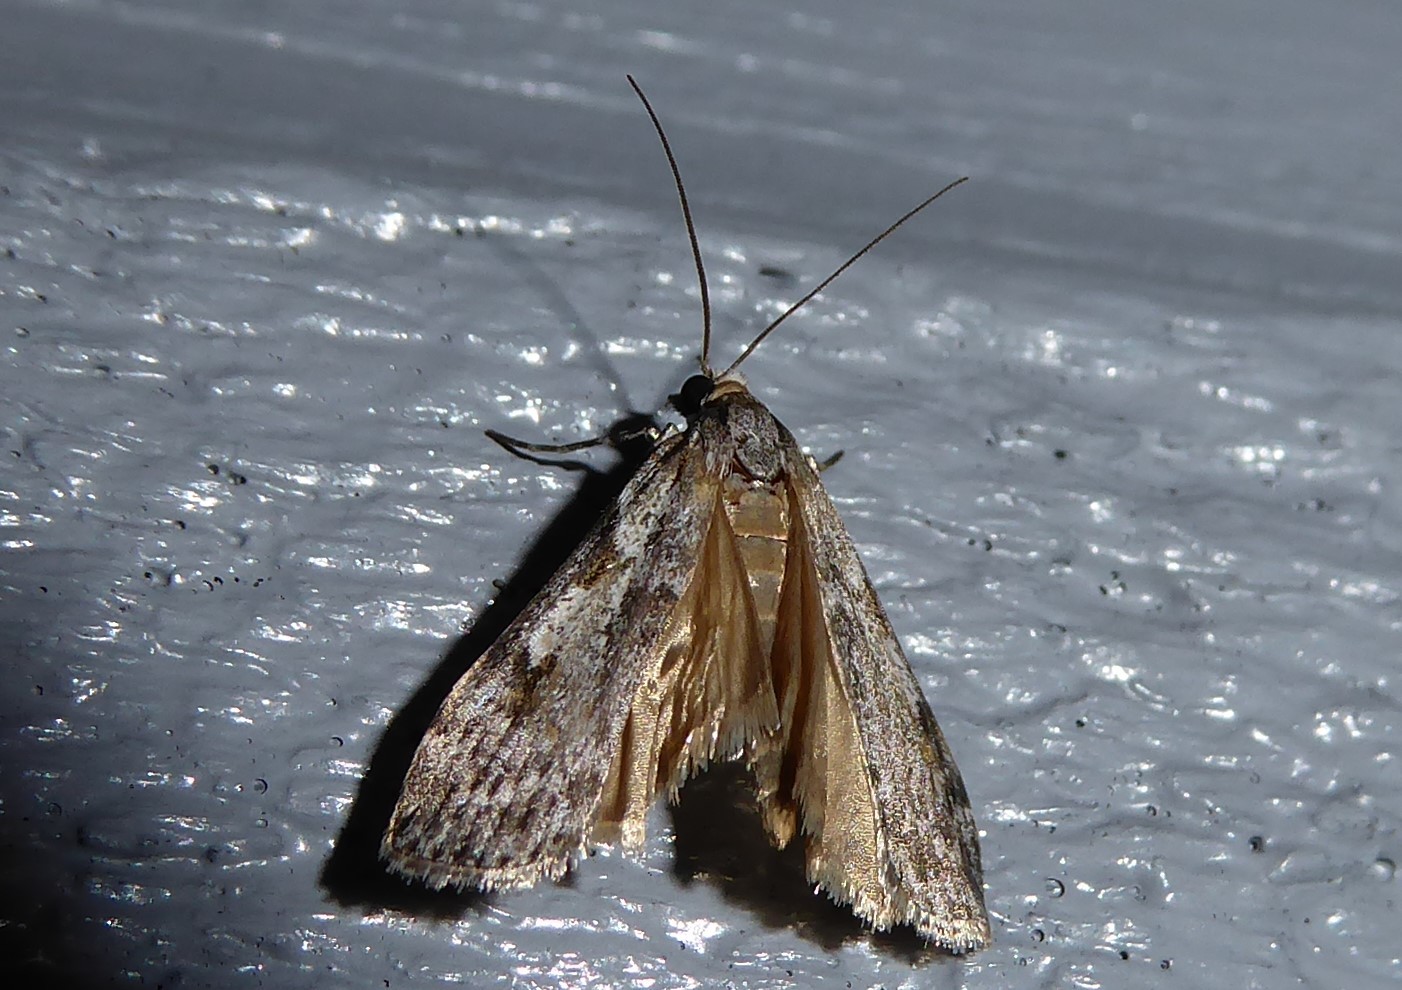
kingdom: Animalia
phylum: Arthropoda
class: Insecta
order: Lepidoptera
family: Crambidae
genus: Scoparia
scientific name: Scoparia halopis
